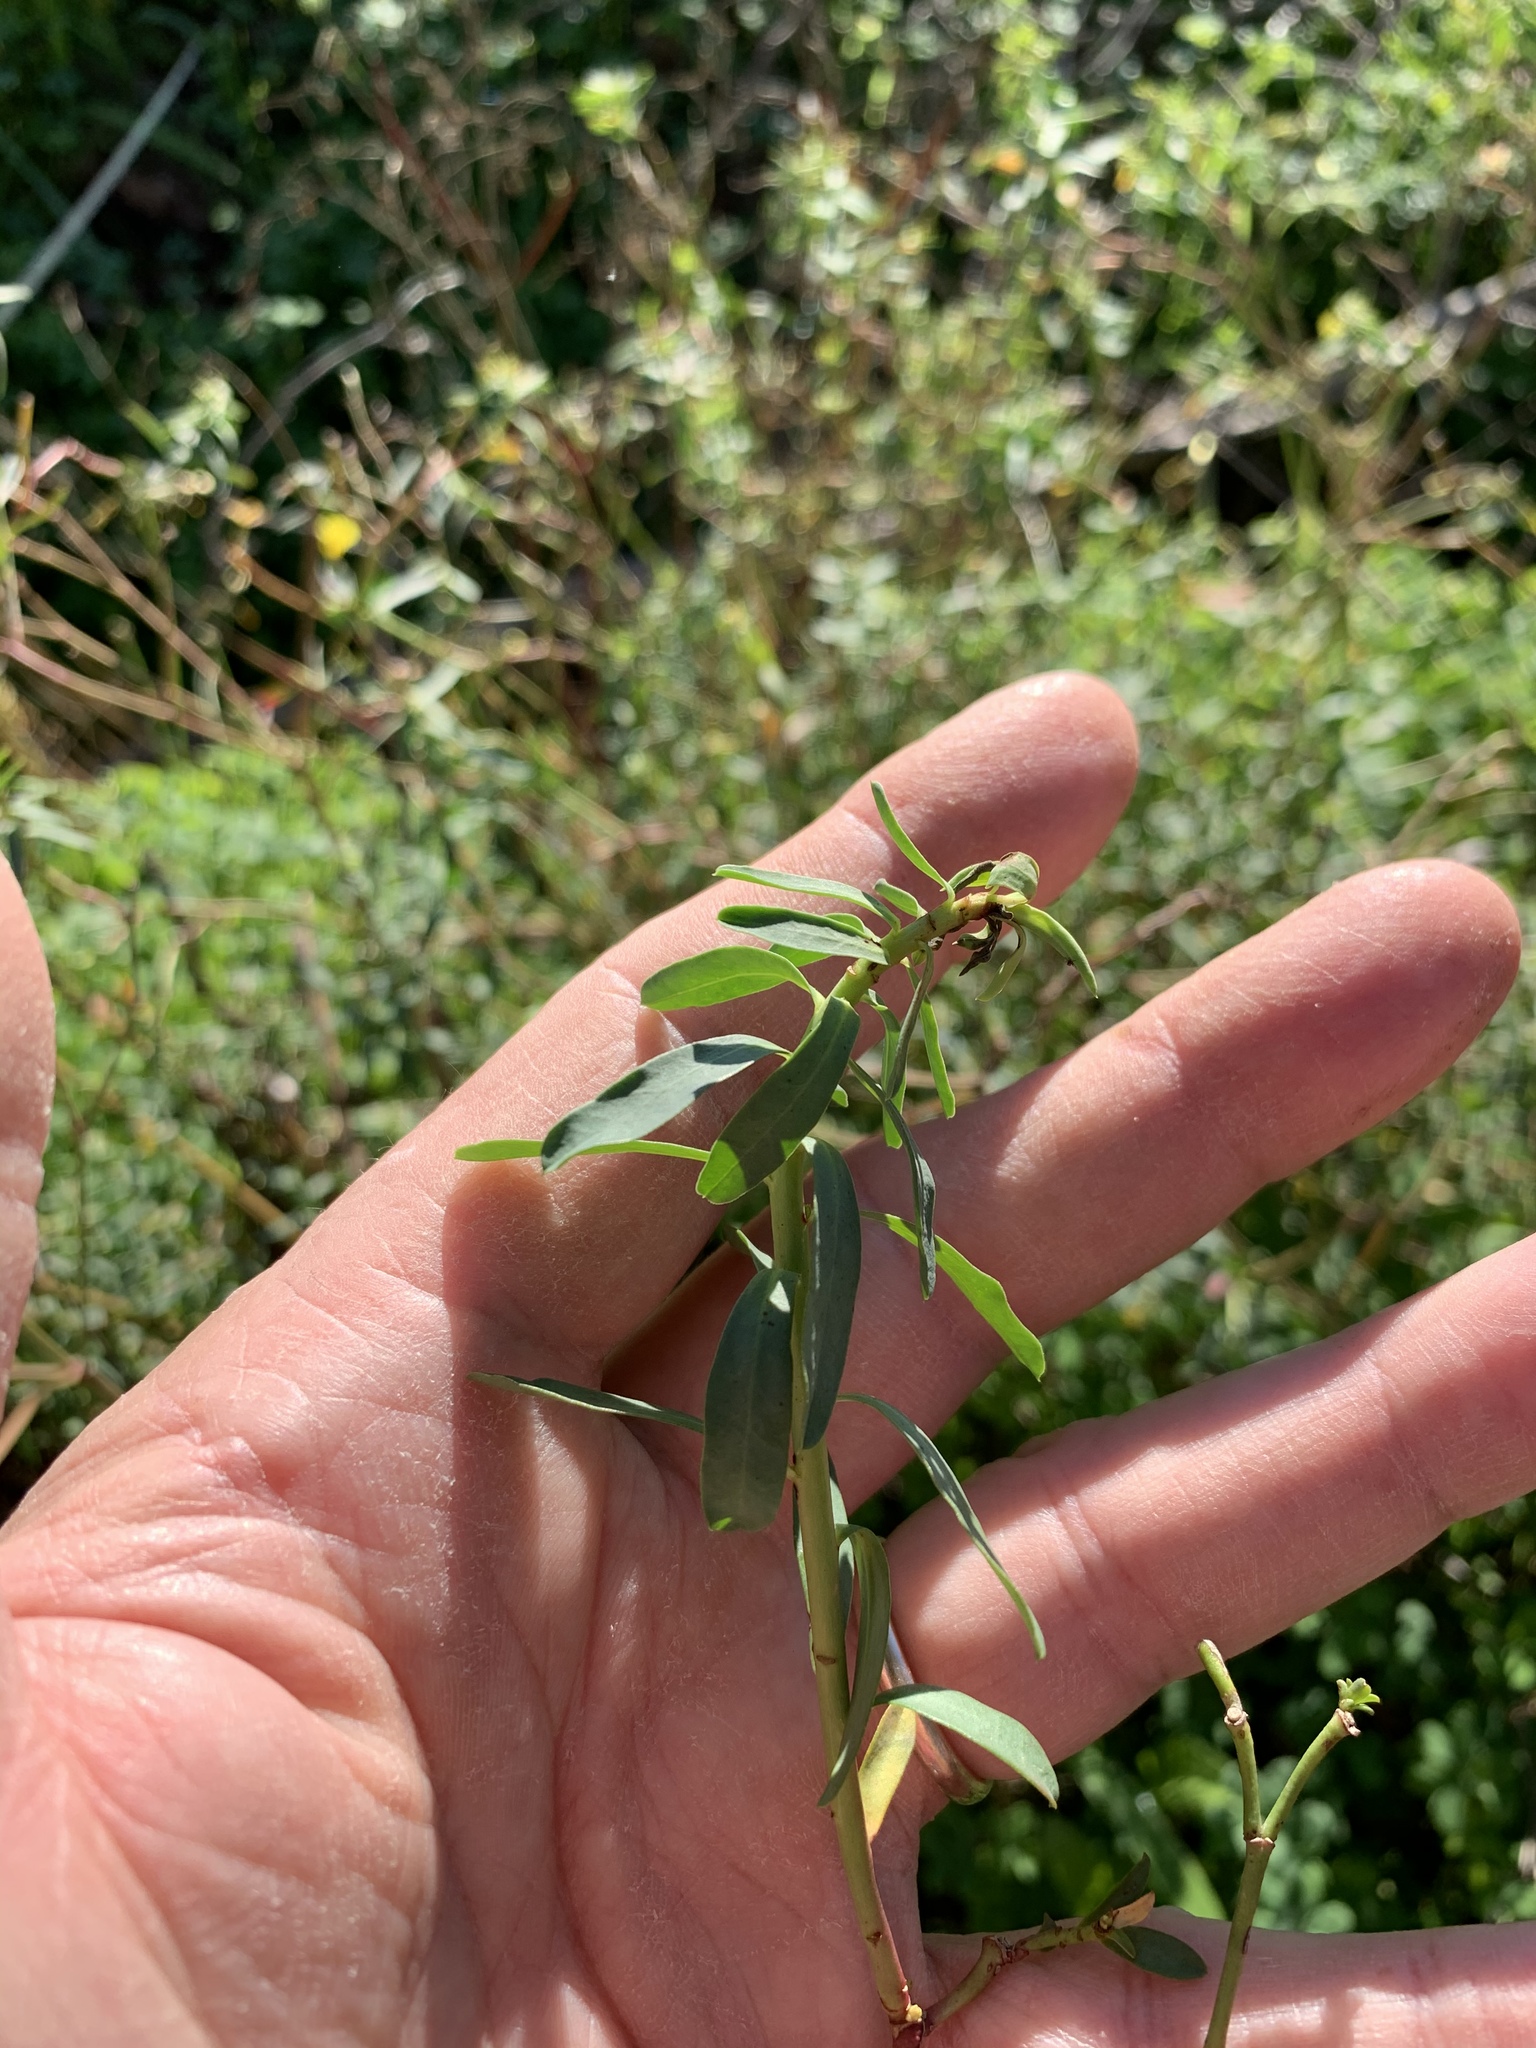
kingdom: Plantae
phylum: Tracheophyta
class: Magnoliopsida
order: Malpighiales
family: Euphorbiaceae
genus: Euphorbia
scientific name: Euphorbia terracina
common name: Geraldton carnation weed
